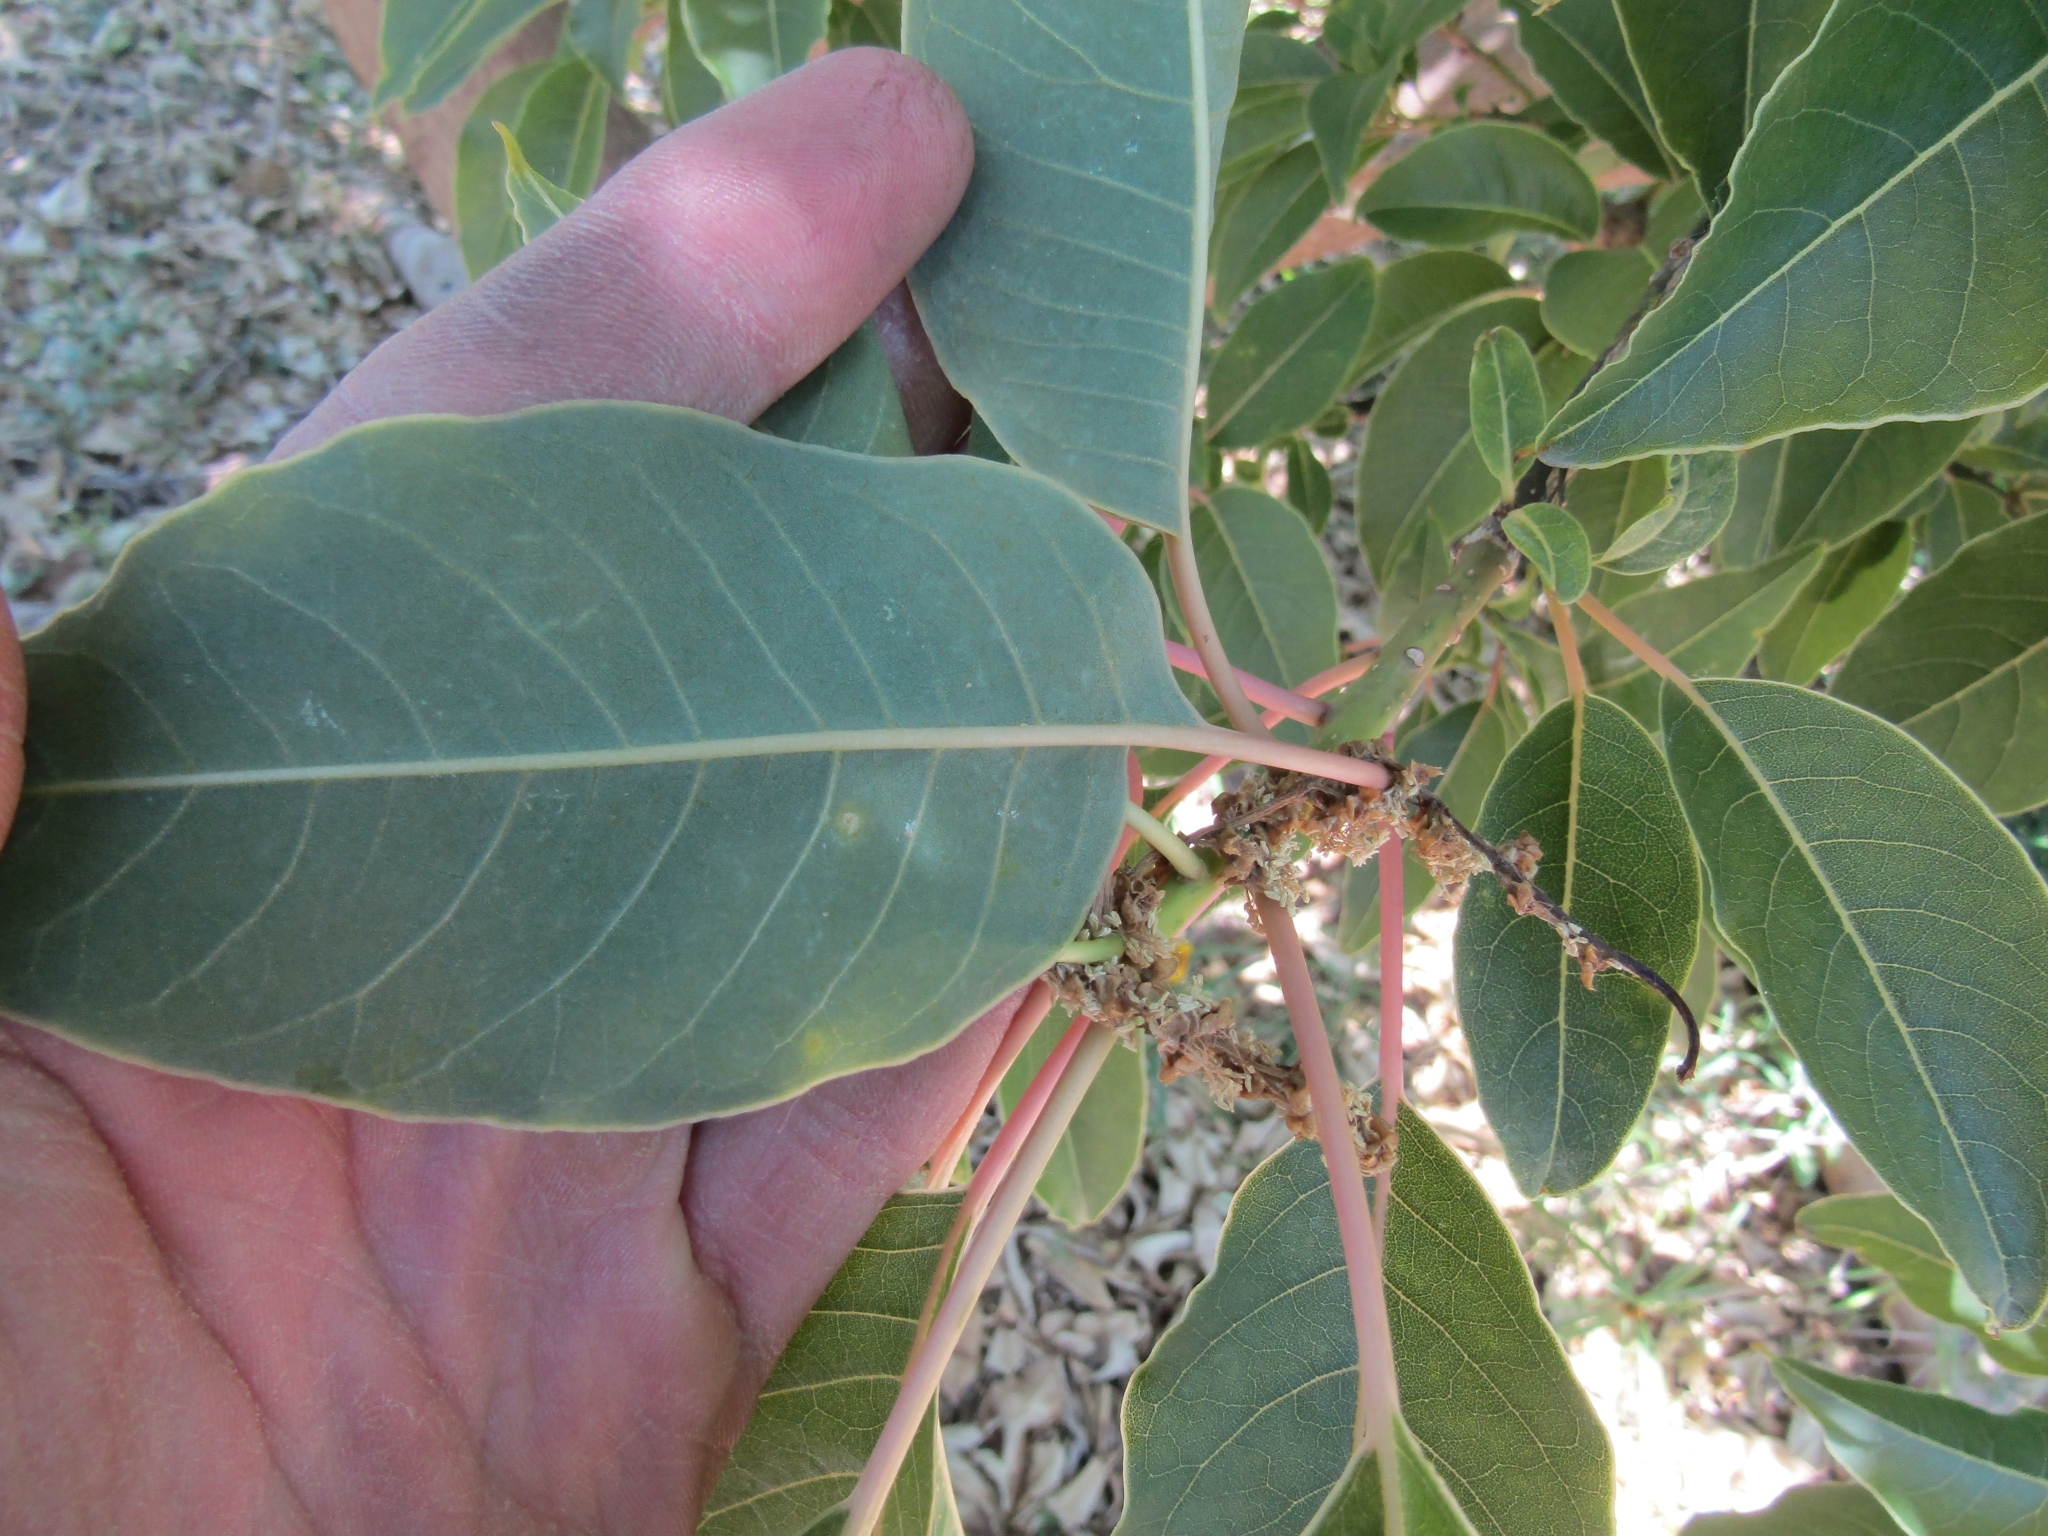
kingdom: Plantae
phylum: Tracheophyta
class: Magnoliopsida
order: Caryophyllales
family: Phytolaccaceae
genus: Phytolacca
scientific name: Phytolacca dioica
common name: Pokeweed
